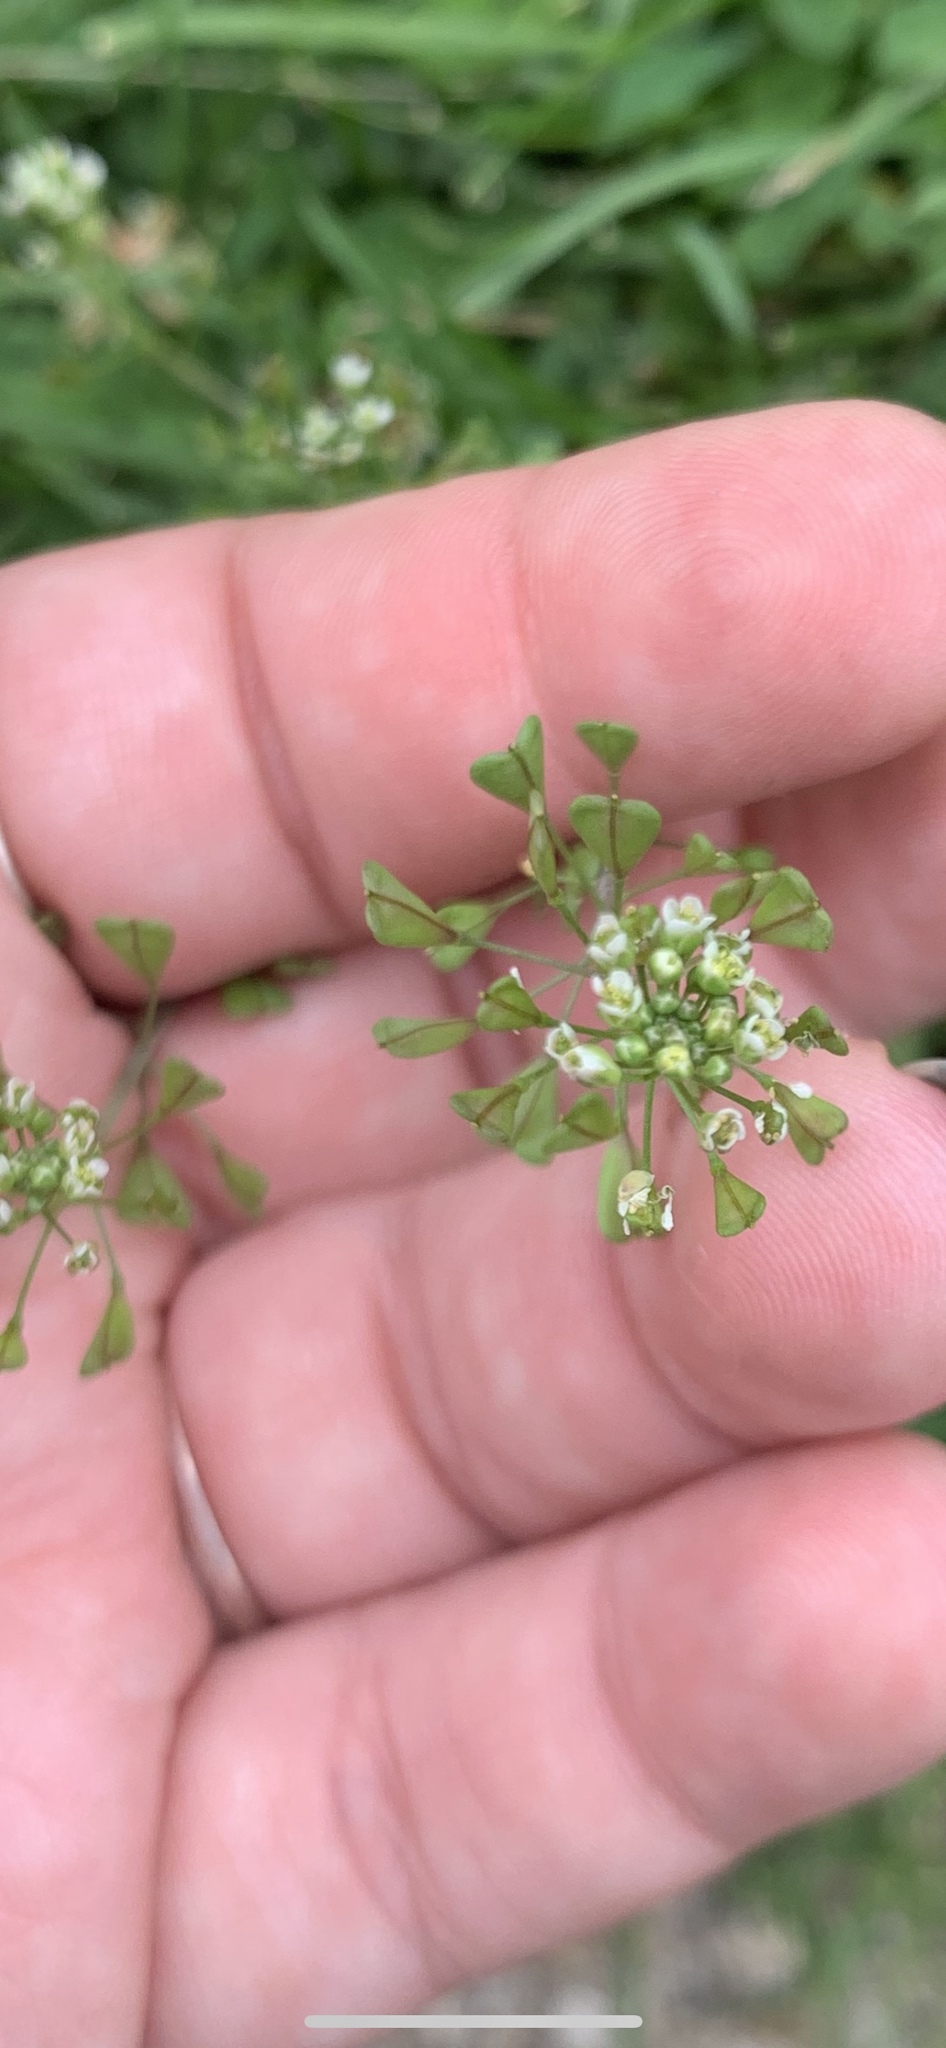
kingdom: Plantae
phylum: Tracheophyta
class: Magnoliopsida
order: Brassicales
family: Brassicaceae
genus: Capsella
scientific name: Capsella bursa-pastoris
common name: Shepherd's purse
